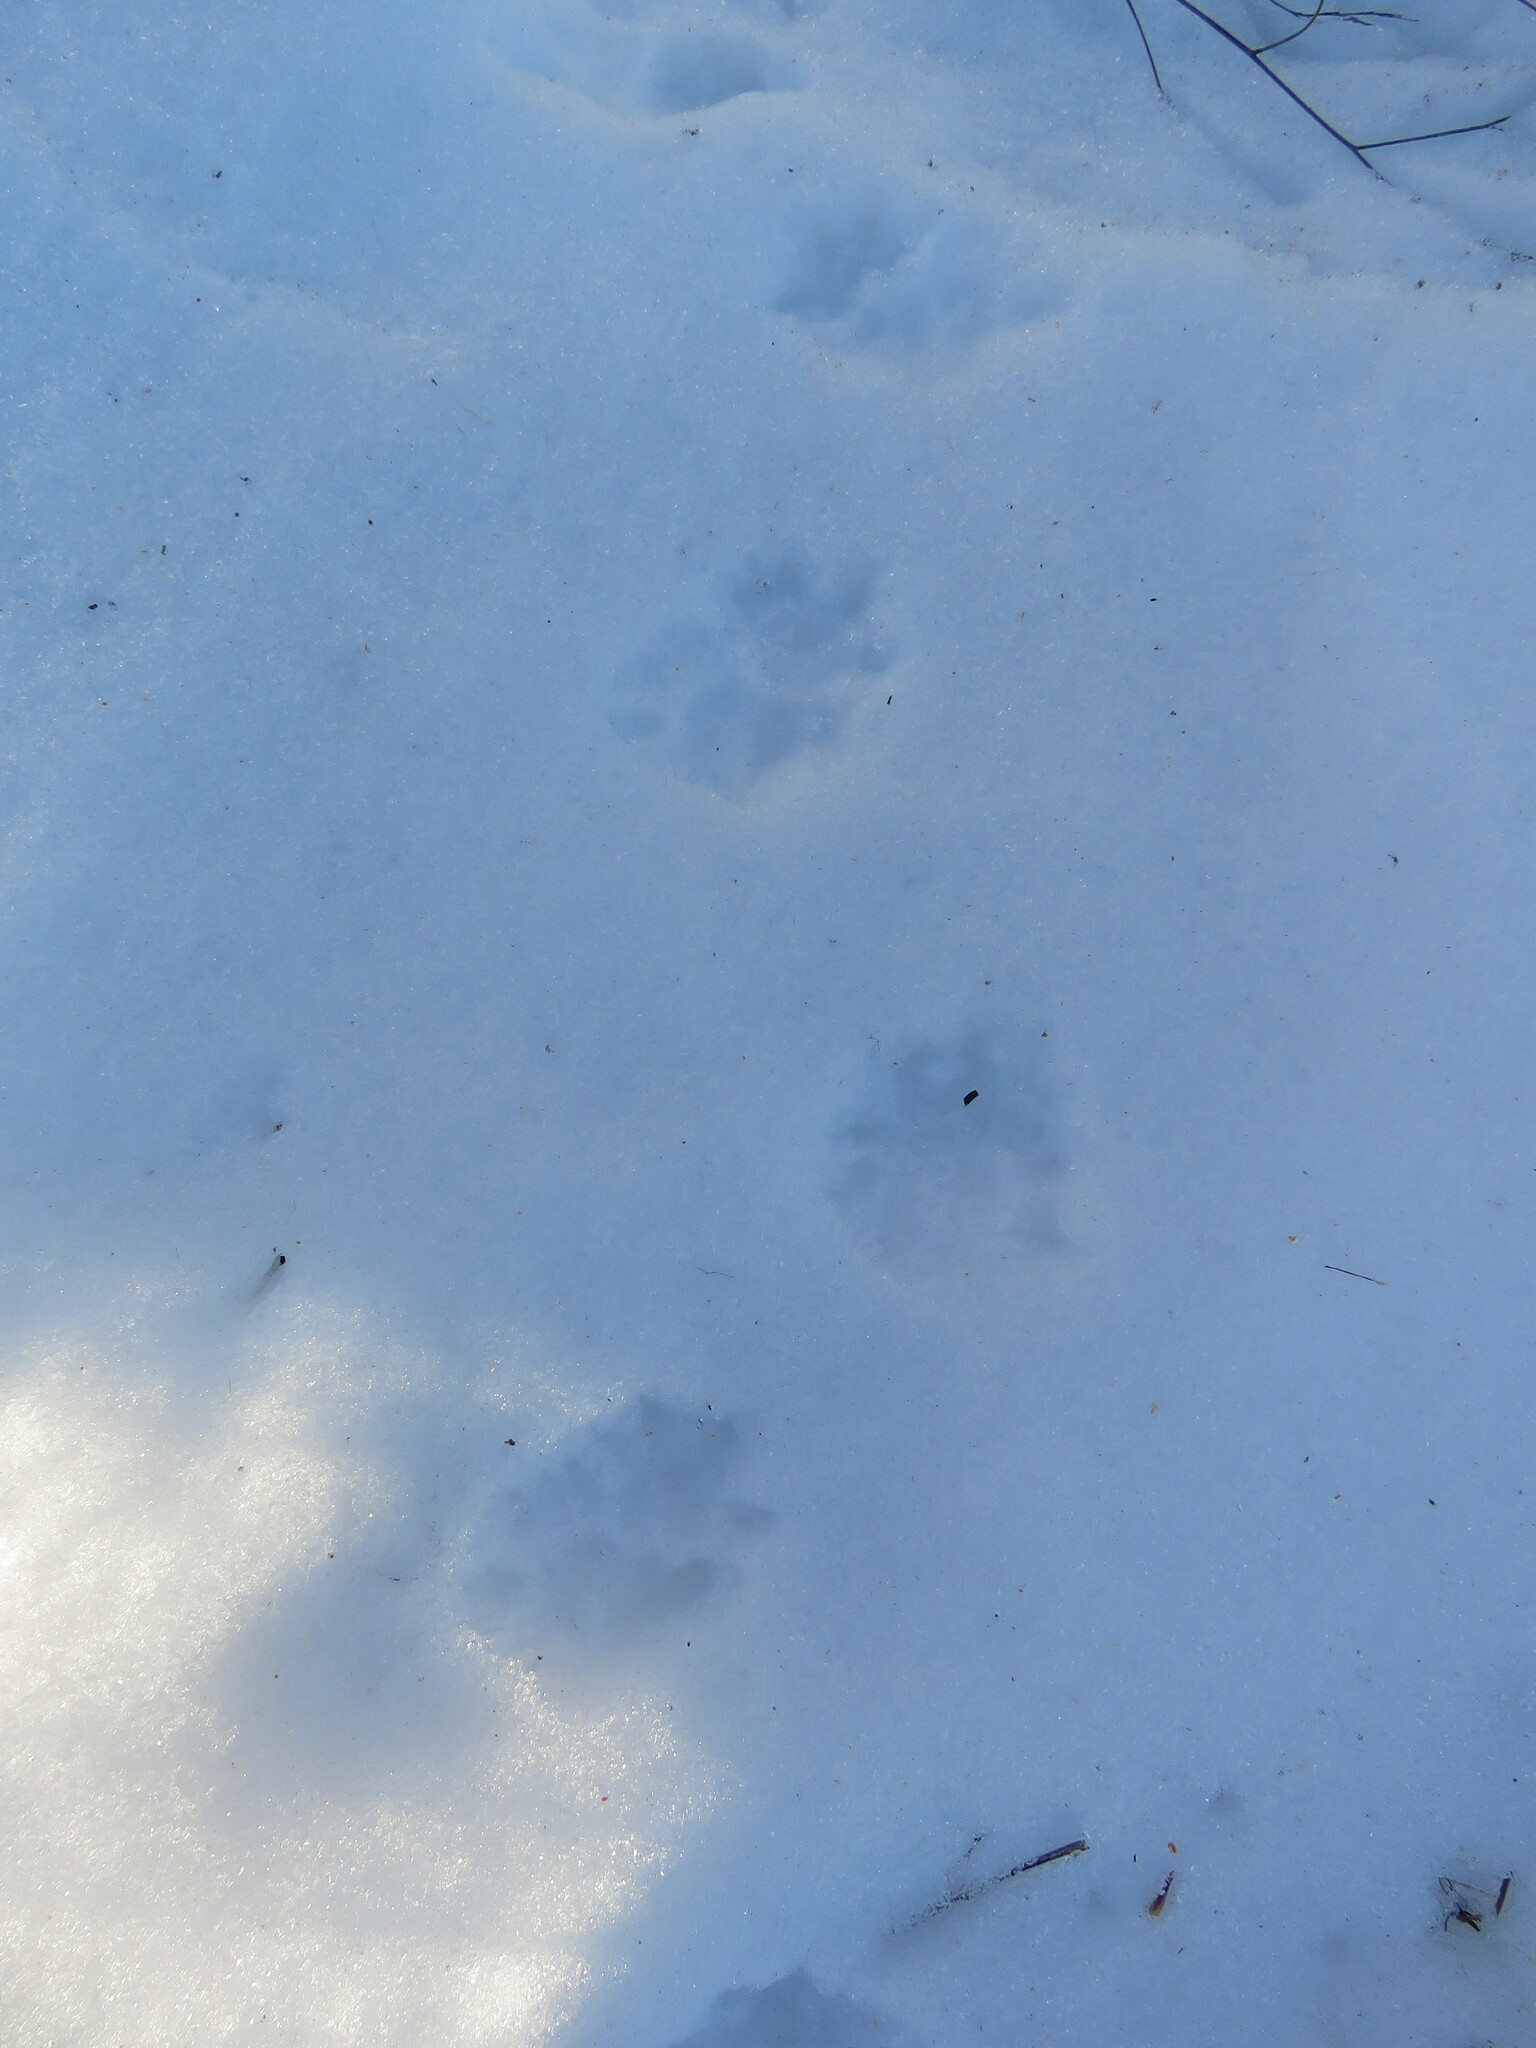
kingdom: Animalia
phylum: Chordata
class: Mammalia
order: Didelphimorphia
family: Didelphidae
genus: Didelphis
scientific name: Didelphis virginiana
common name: Virginia opossum
